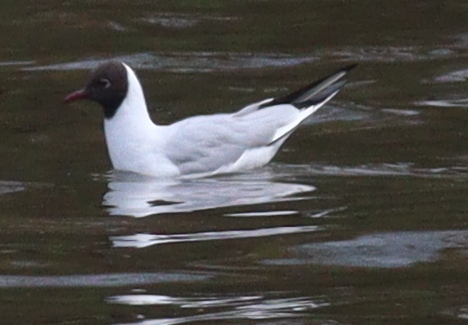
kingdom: Animalia
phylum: Chordata
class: Aves
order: Charadriiformes
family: Laridae
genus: Chroicocephalus
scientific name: Chroicocephalus ridibundus
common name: Black-headed gull
